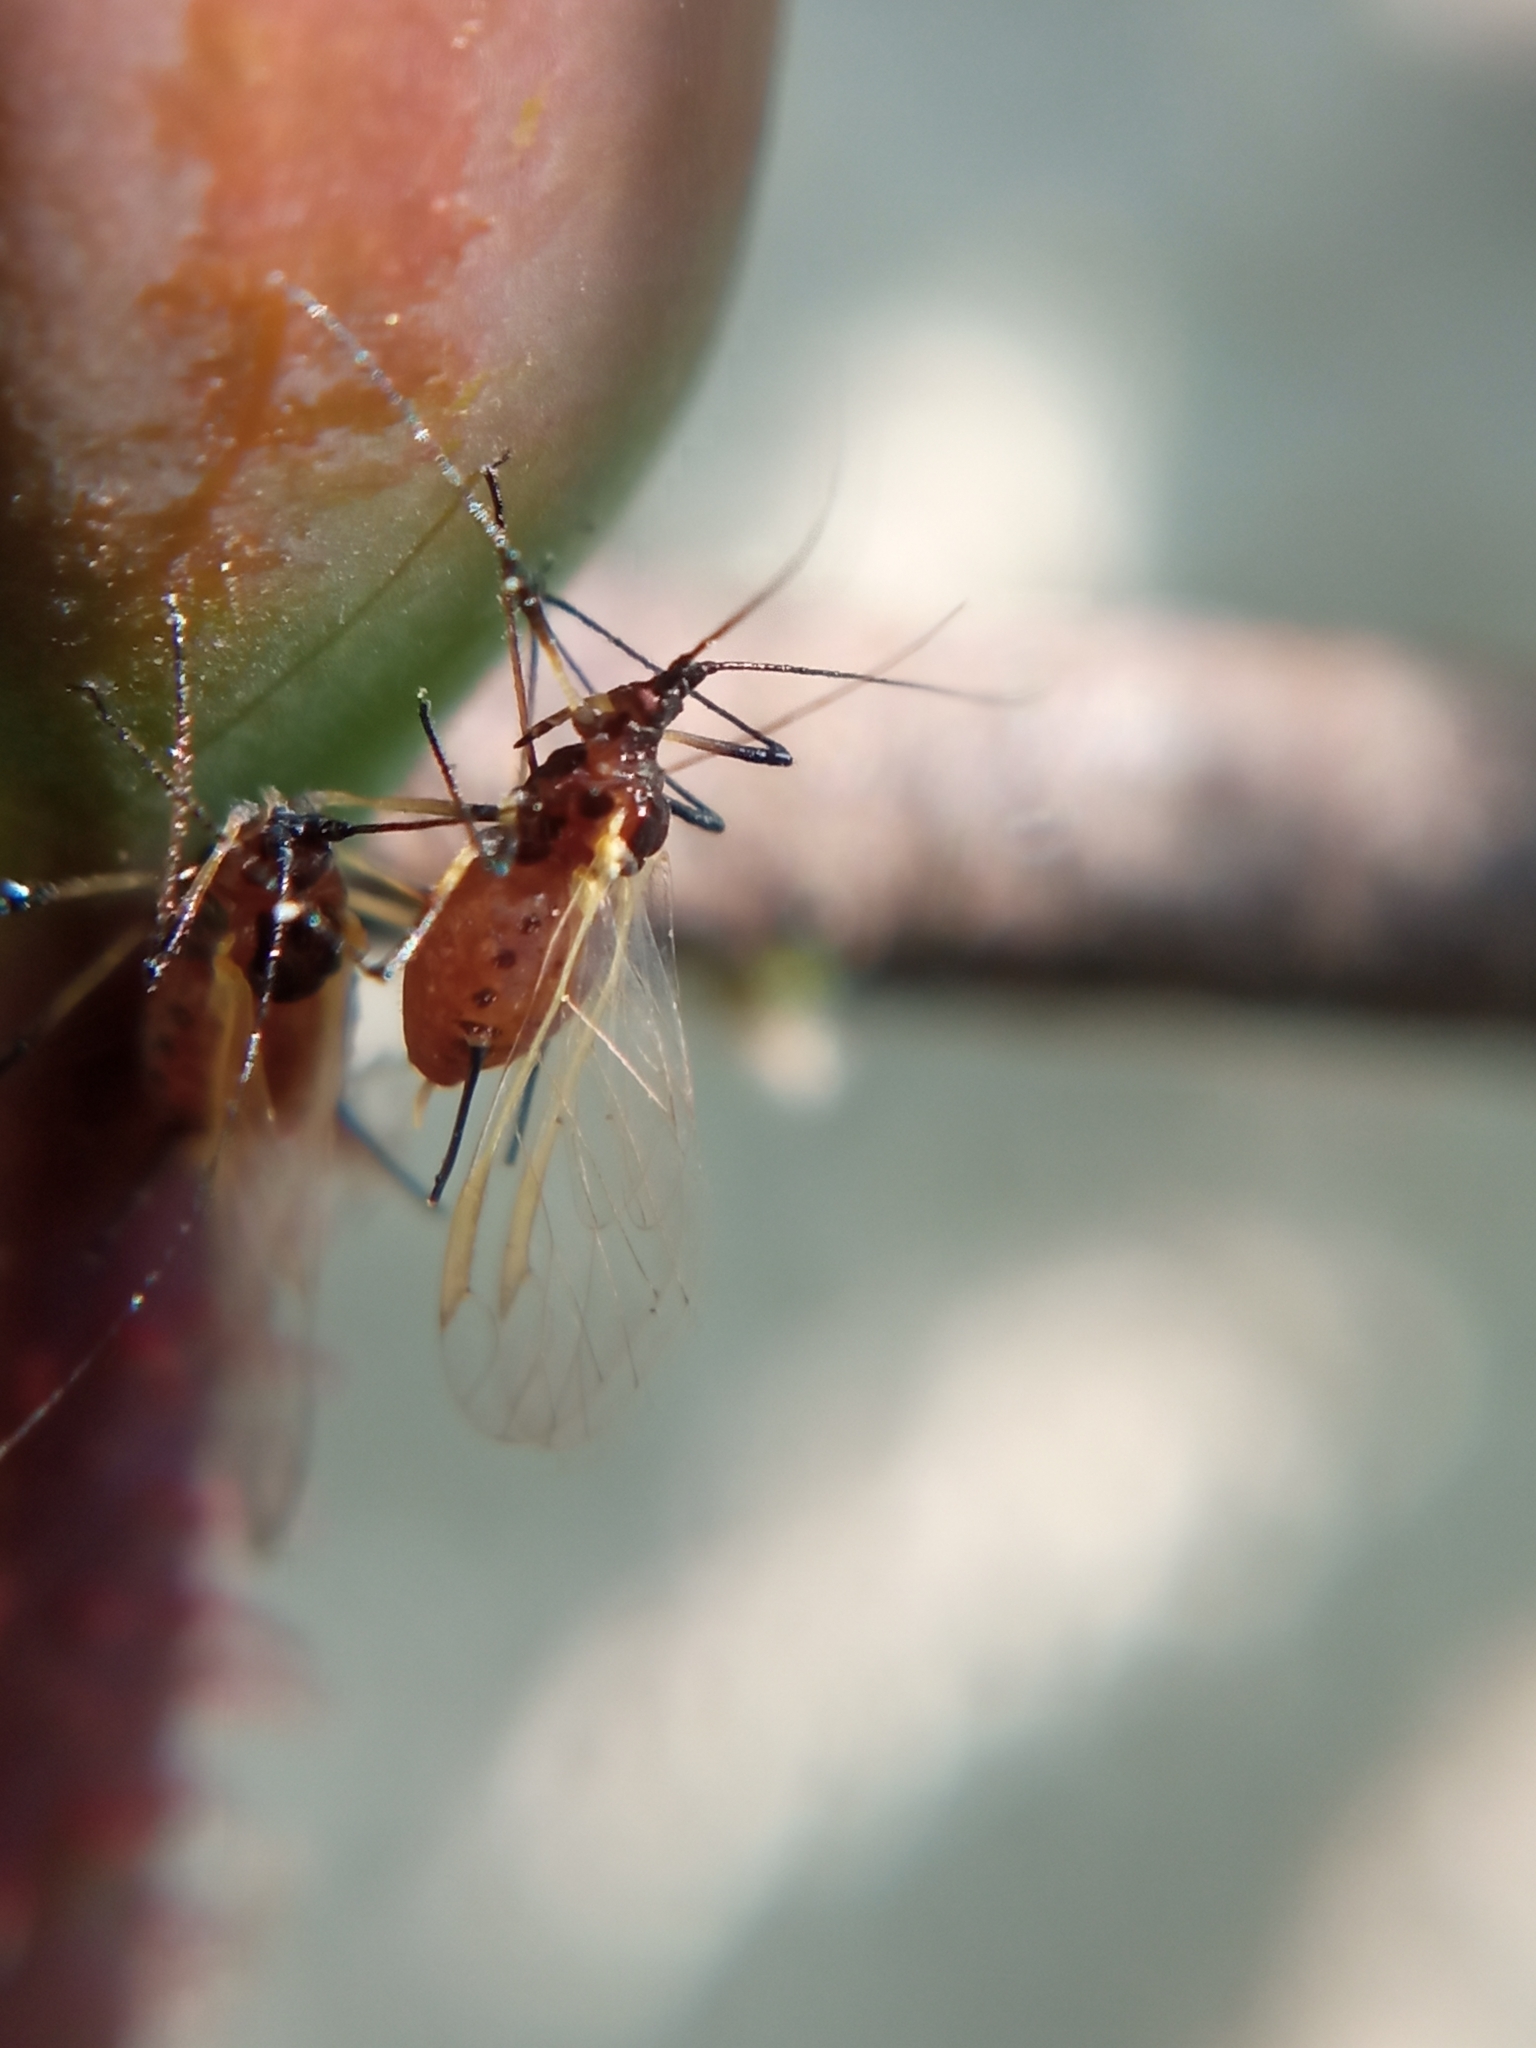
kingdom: Animalia
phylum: Arthropoda
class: Insecta
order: Hemiptera
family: Aphididae
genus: Macrosiphum
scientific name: Macrosiphum rosae
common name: Rose aphid
